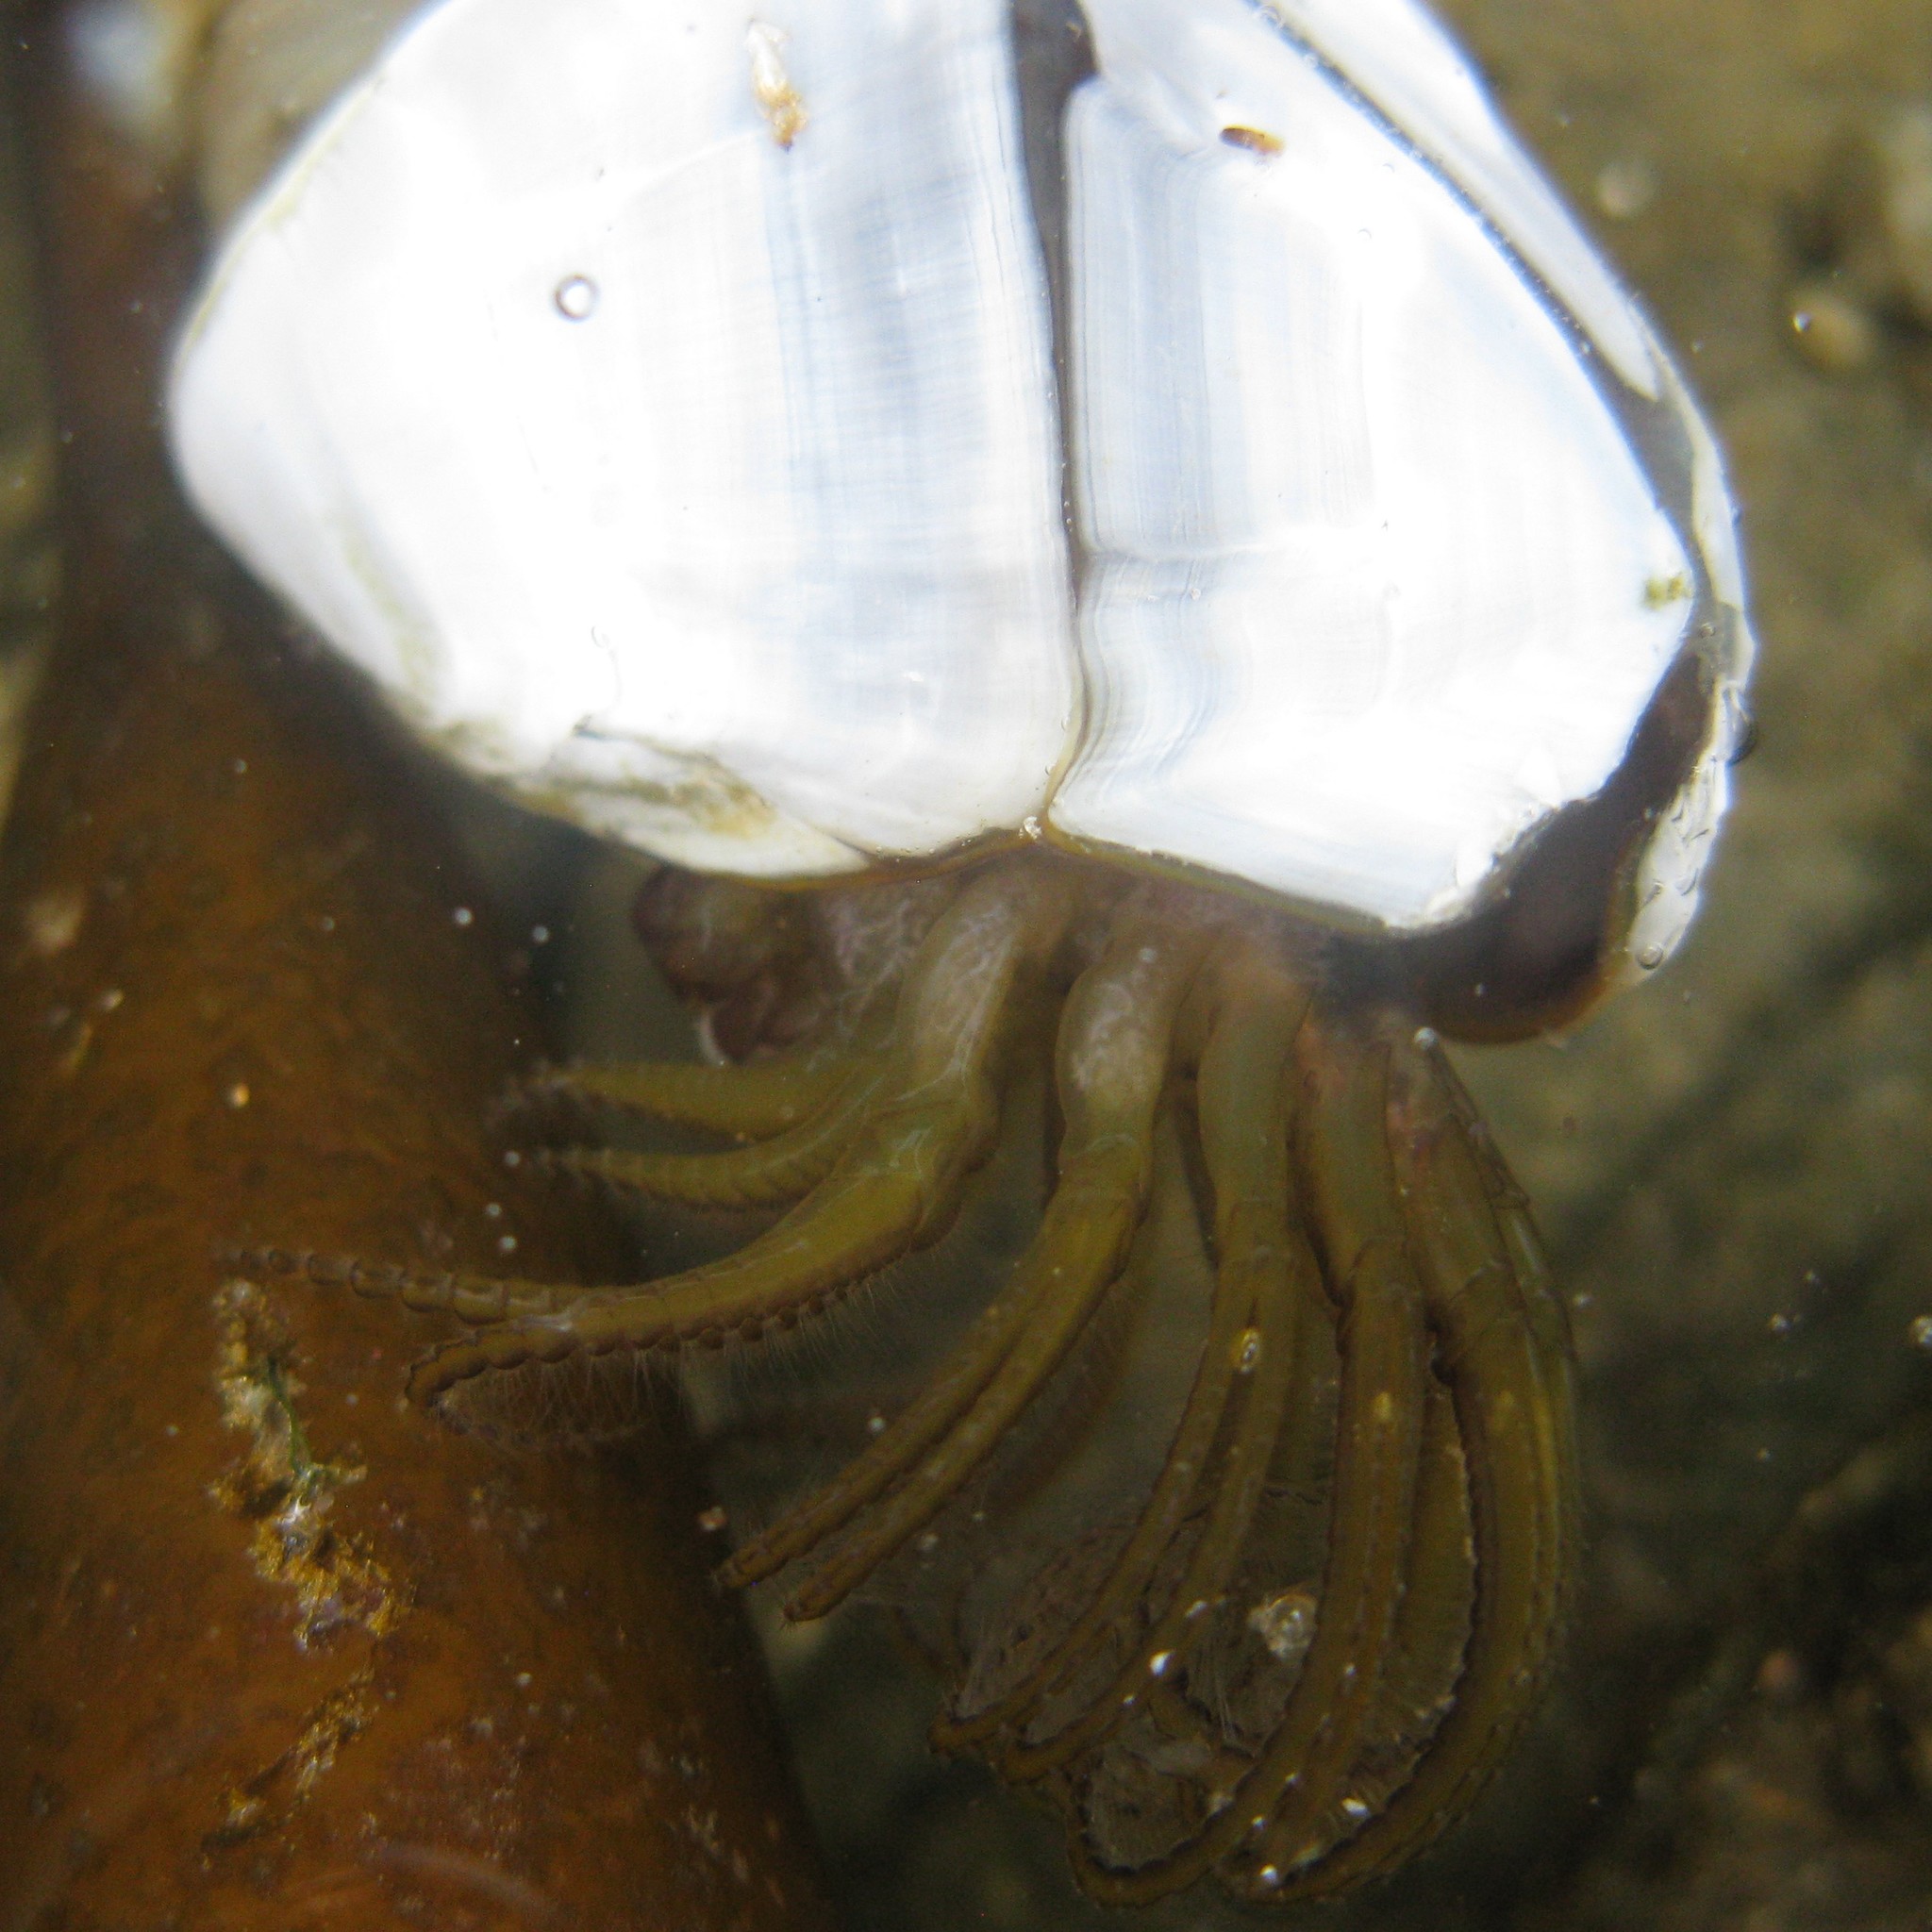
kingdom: Animalia
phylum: Arthropoda
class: Maxillopoda
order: Pedunculata
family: Lepadidae
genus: Lepas
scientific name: Lepas australis
